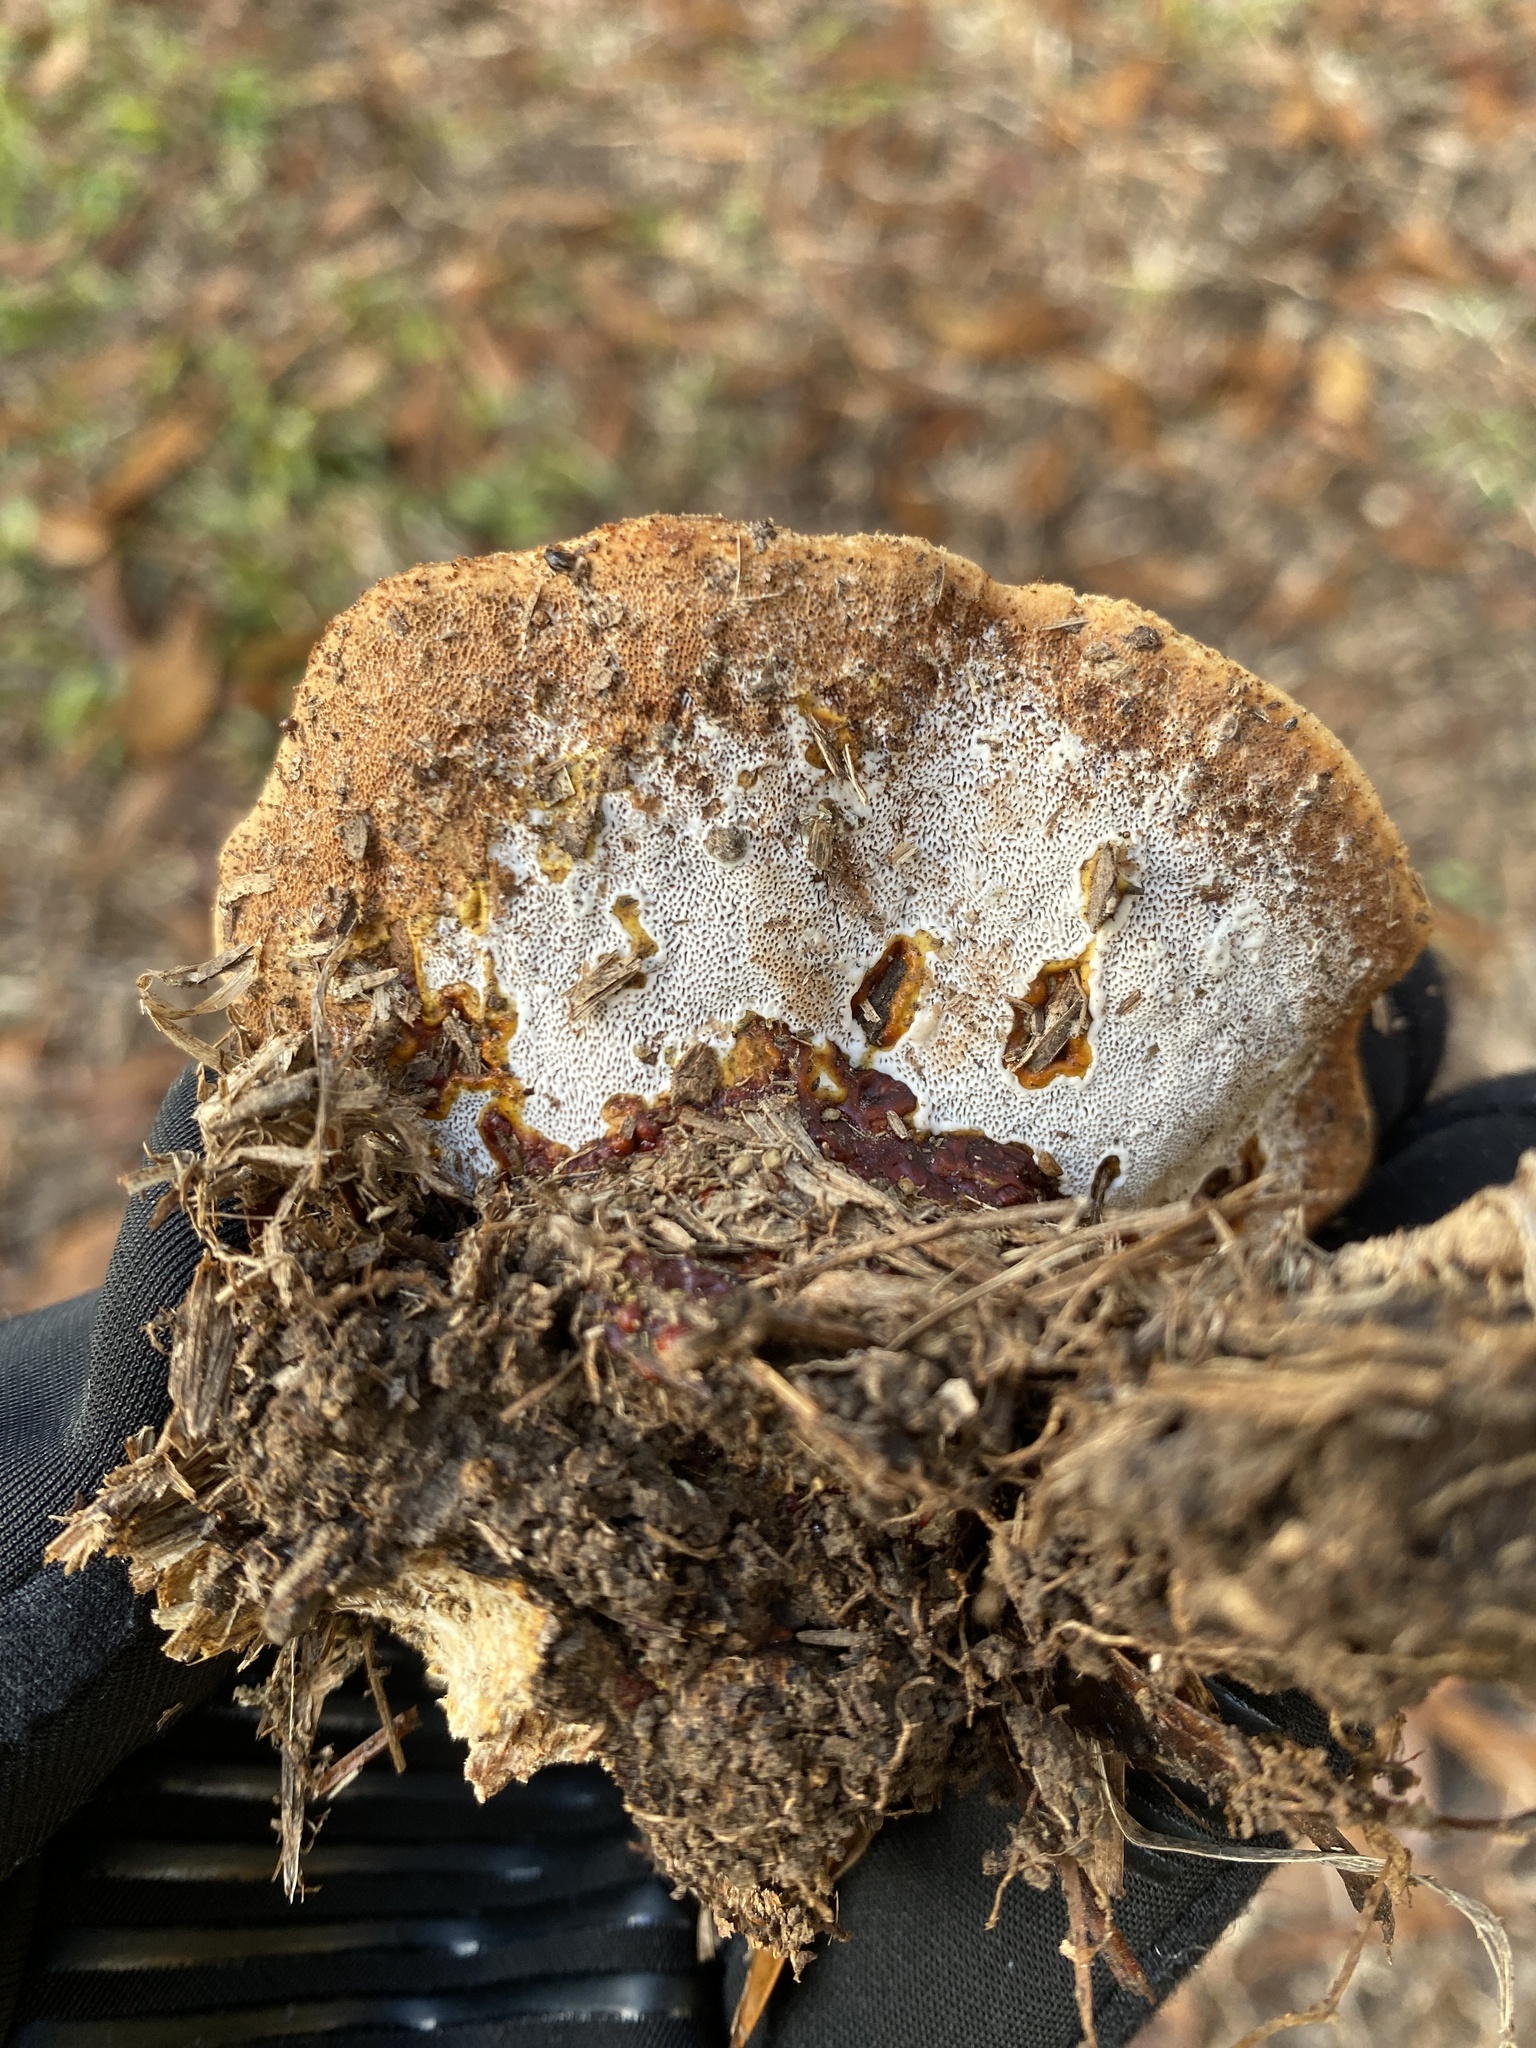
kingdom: Fungi
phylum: Basidiomycota
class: Agaricomycetes
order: Polyporales
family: Polyporaceae
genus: Ganoderma
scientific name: Ganoderma resinaceum
